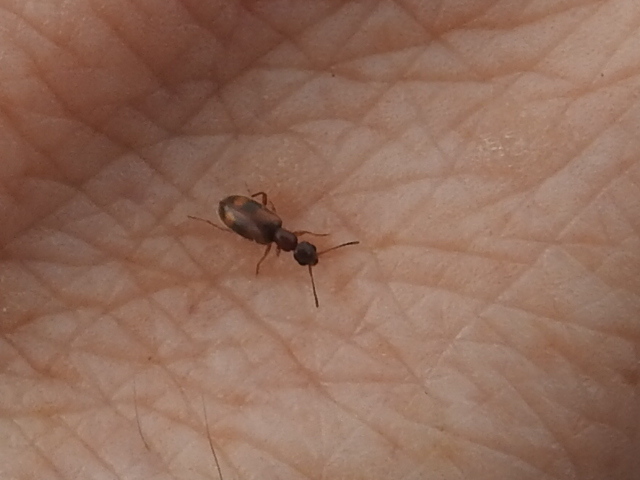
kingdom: Animalia
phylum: Arthropoda
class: Insecta
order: Coleoptera
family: Anthicidae
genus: Vacusus
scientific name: Vacusus vicinus
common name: Antlike flower beetle
